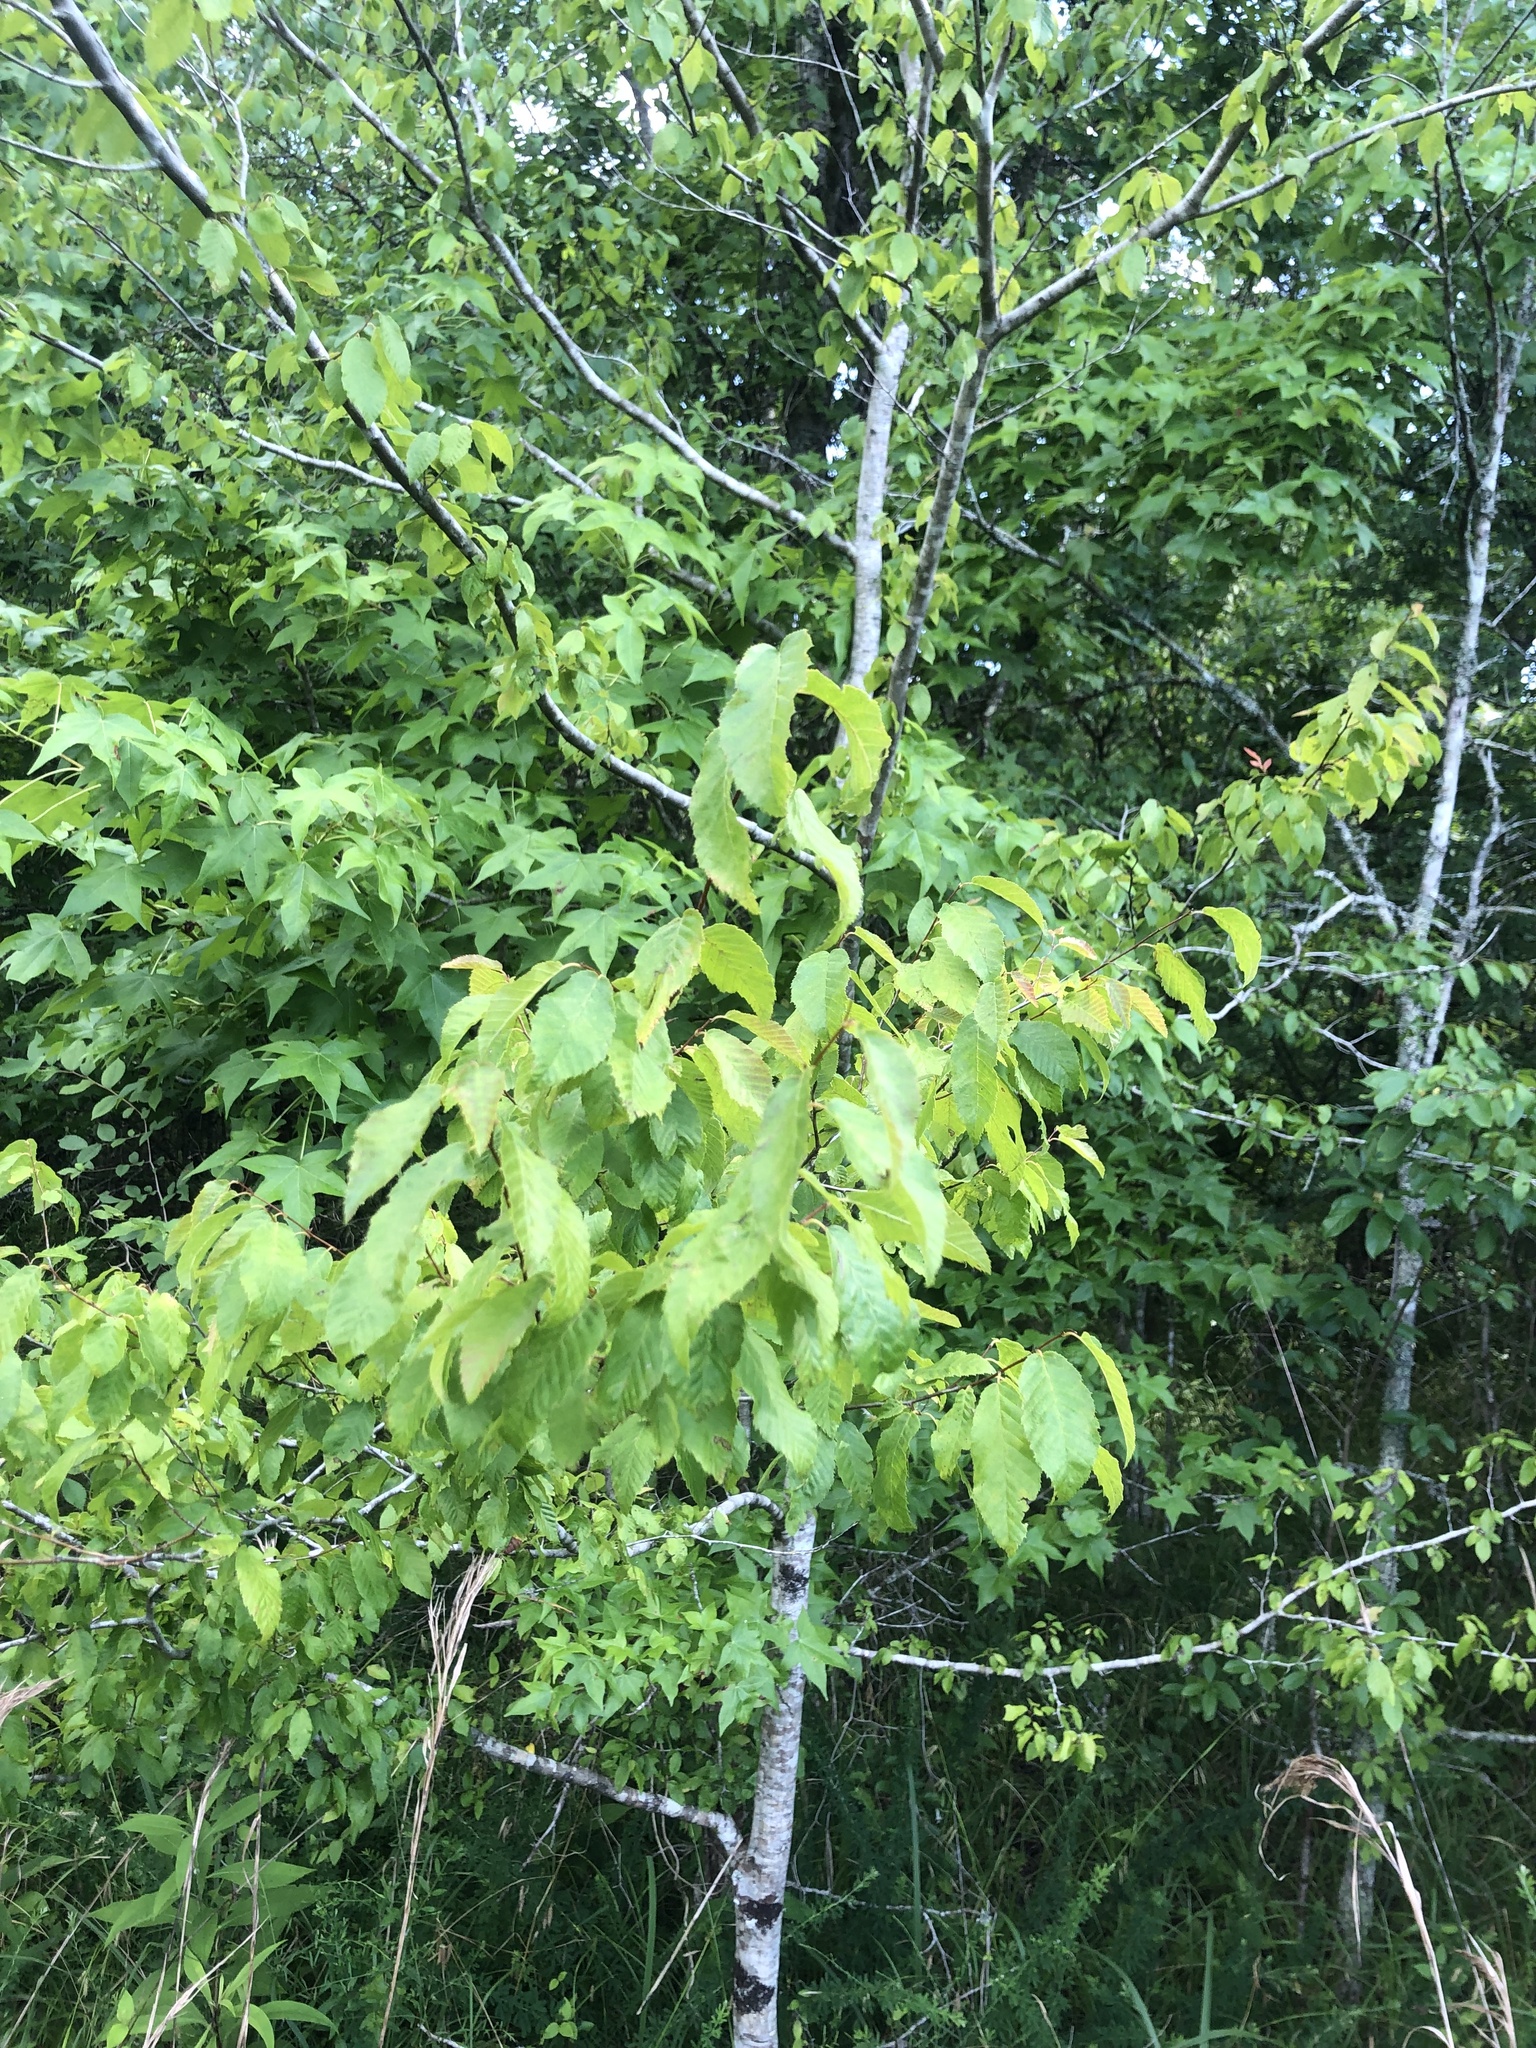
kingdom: Plantae
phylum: Tracheophyta
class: Magnoliopsida
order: Fagales
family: Betulaceae
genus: Carpinus
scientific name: Carpinus caroliniana
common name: American hornbeam
